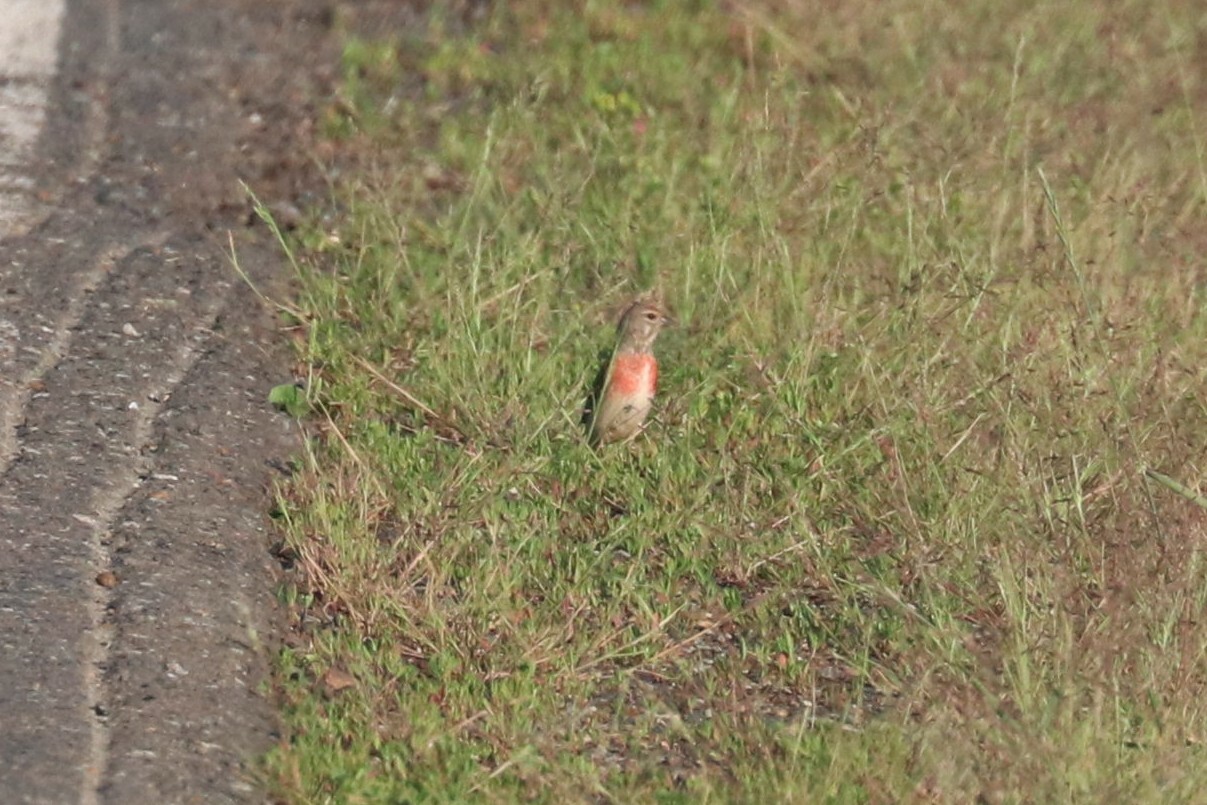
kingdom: Animalia
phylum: Chordata
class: Aves
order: Passeriformes
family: Fringillidae
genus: Linaria
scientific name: Linaria cannabina
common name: Common linnet
